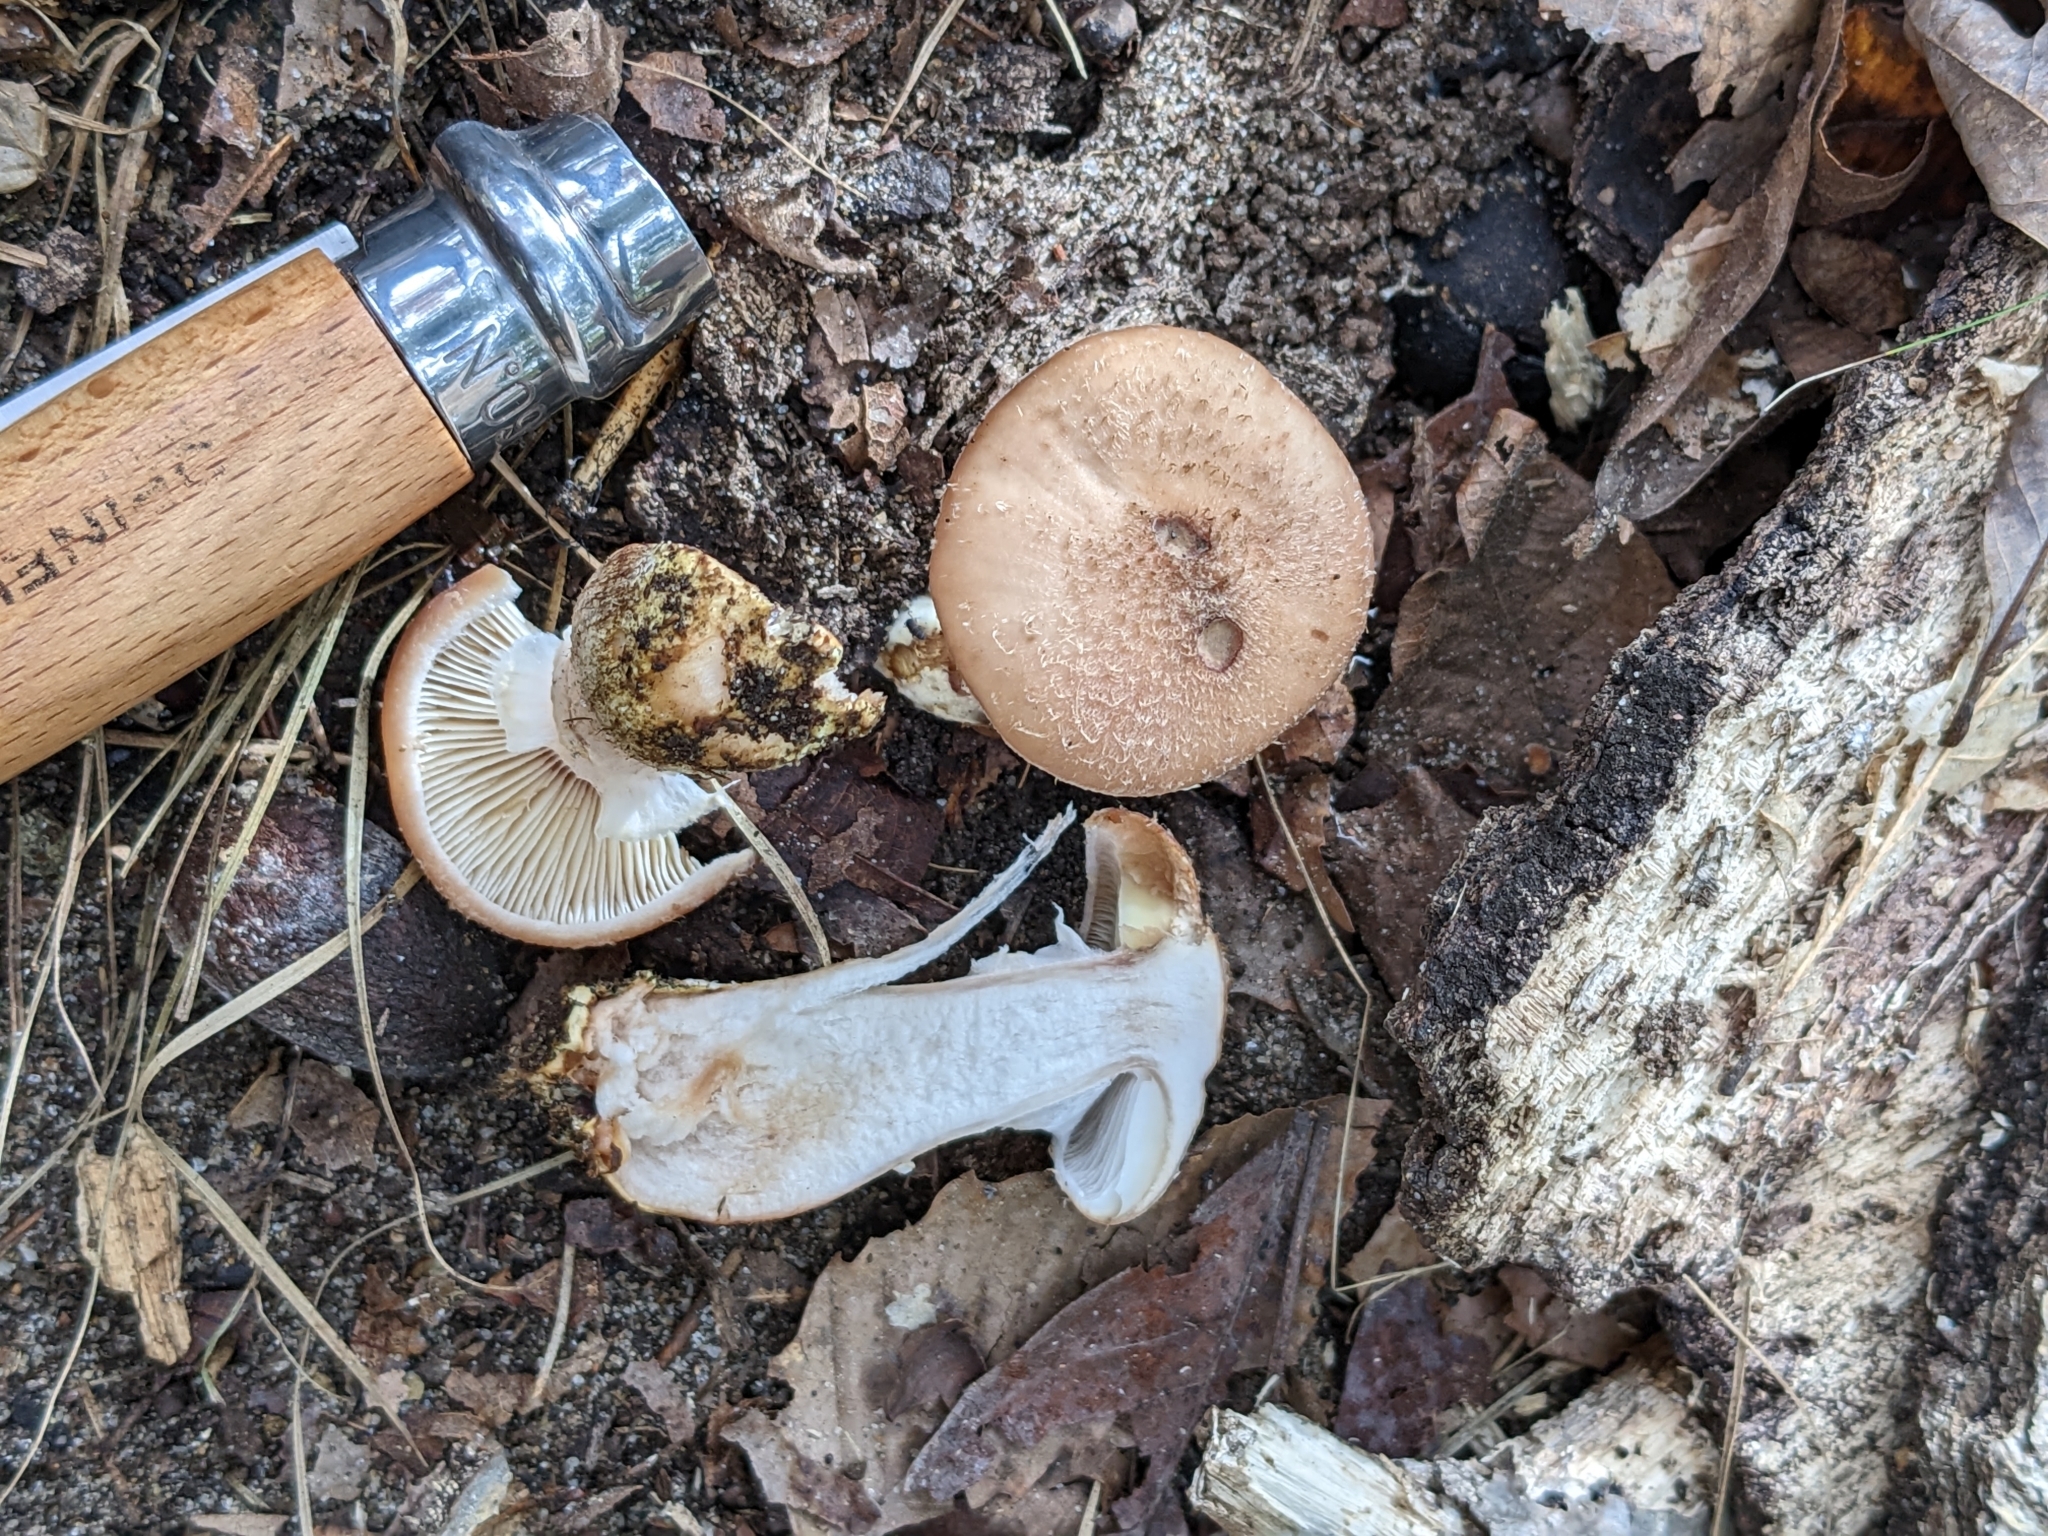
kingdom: Fungi
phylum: Basidiomycota
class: Agaricomycetes
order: Agaricales
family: Physalacriaceae
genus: Armillaria
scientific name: Armillaria gallica
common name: Bulbous honey fungus
